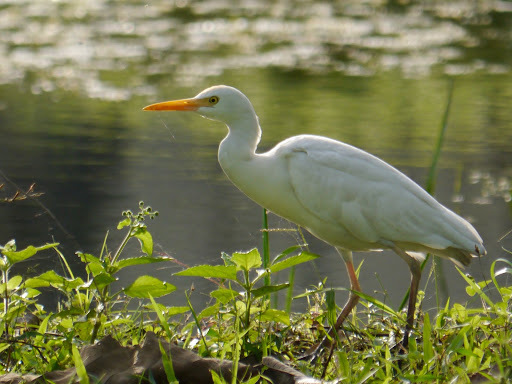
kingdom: Animalia
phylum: Chordata
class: Aves
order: Pelecaniformes
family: Ardeidae
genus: Bubulcus
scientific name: Bubulcus ibis
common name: Cattle egret
